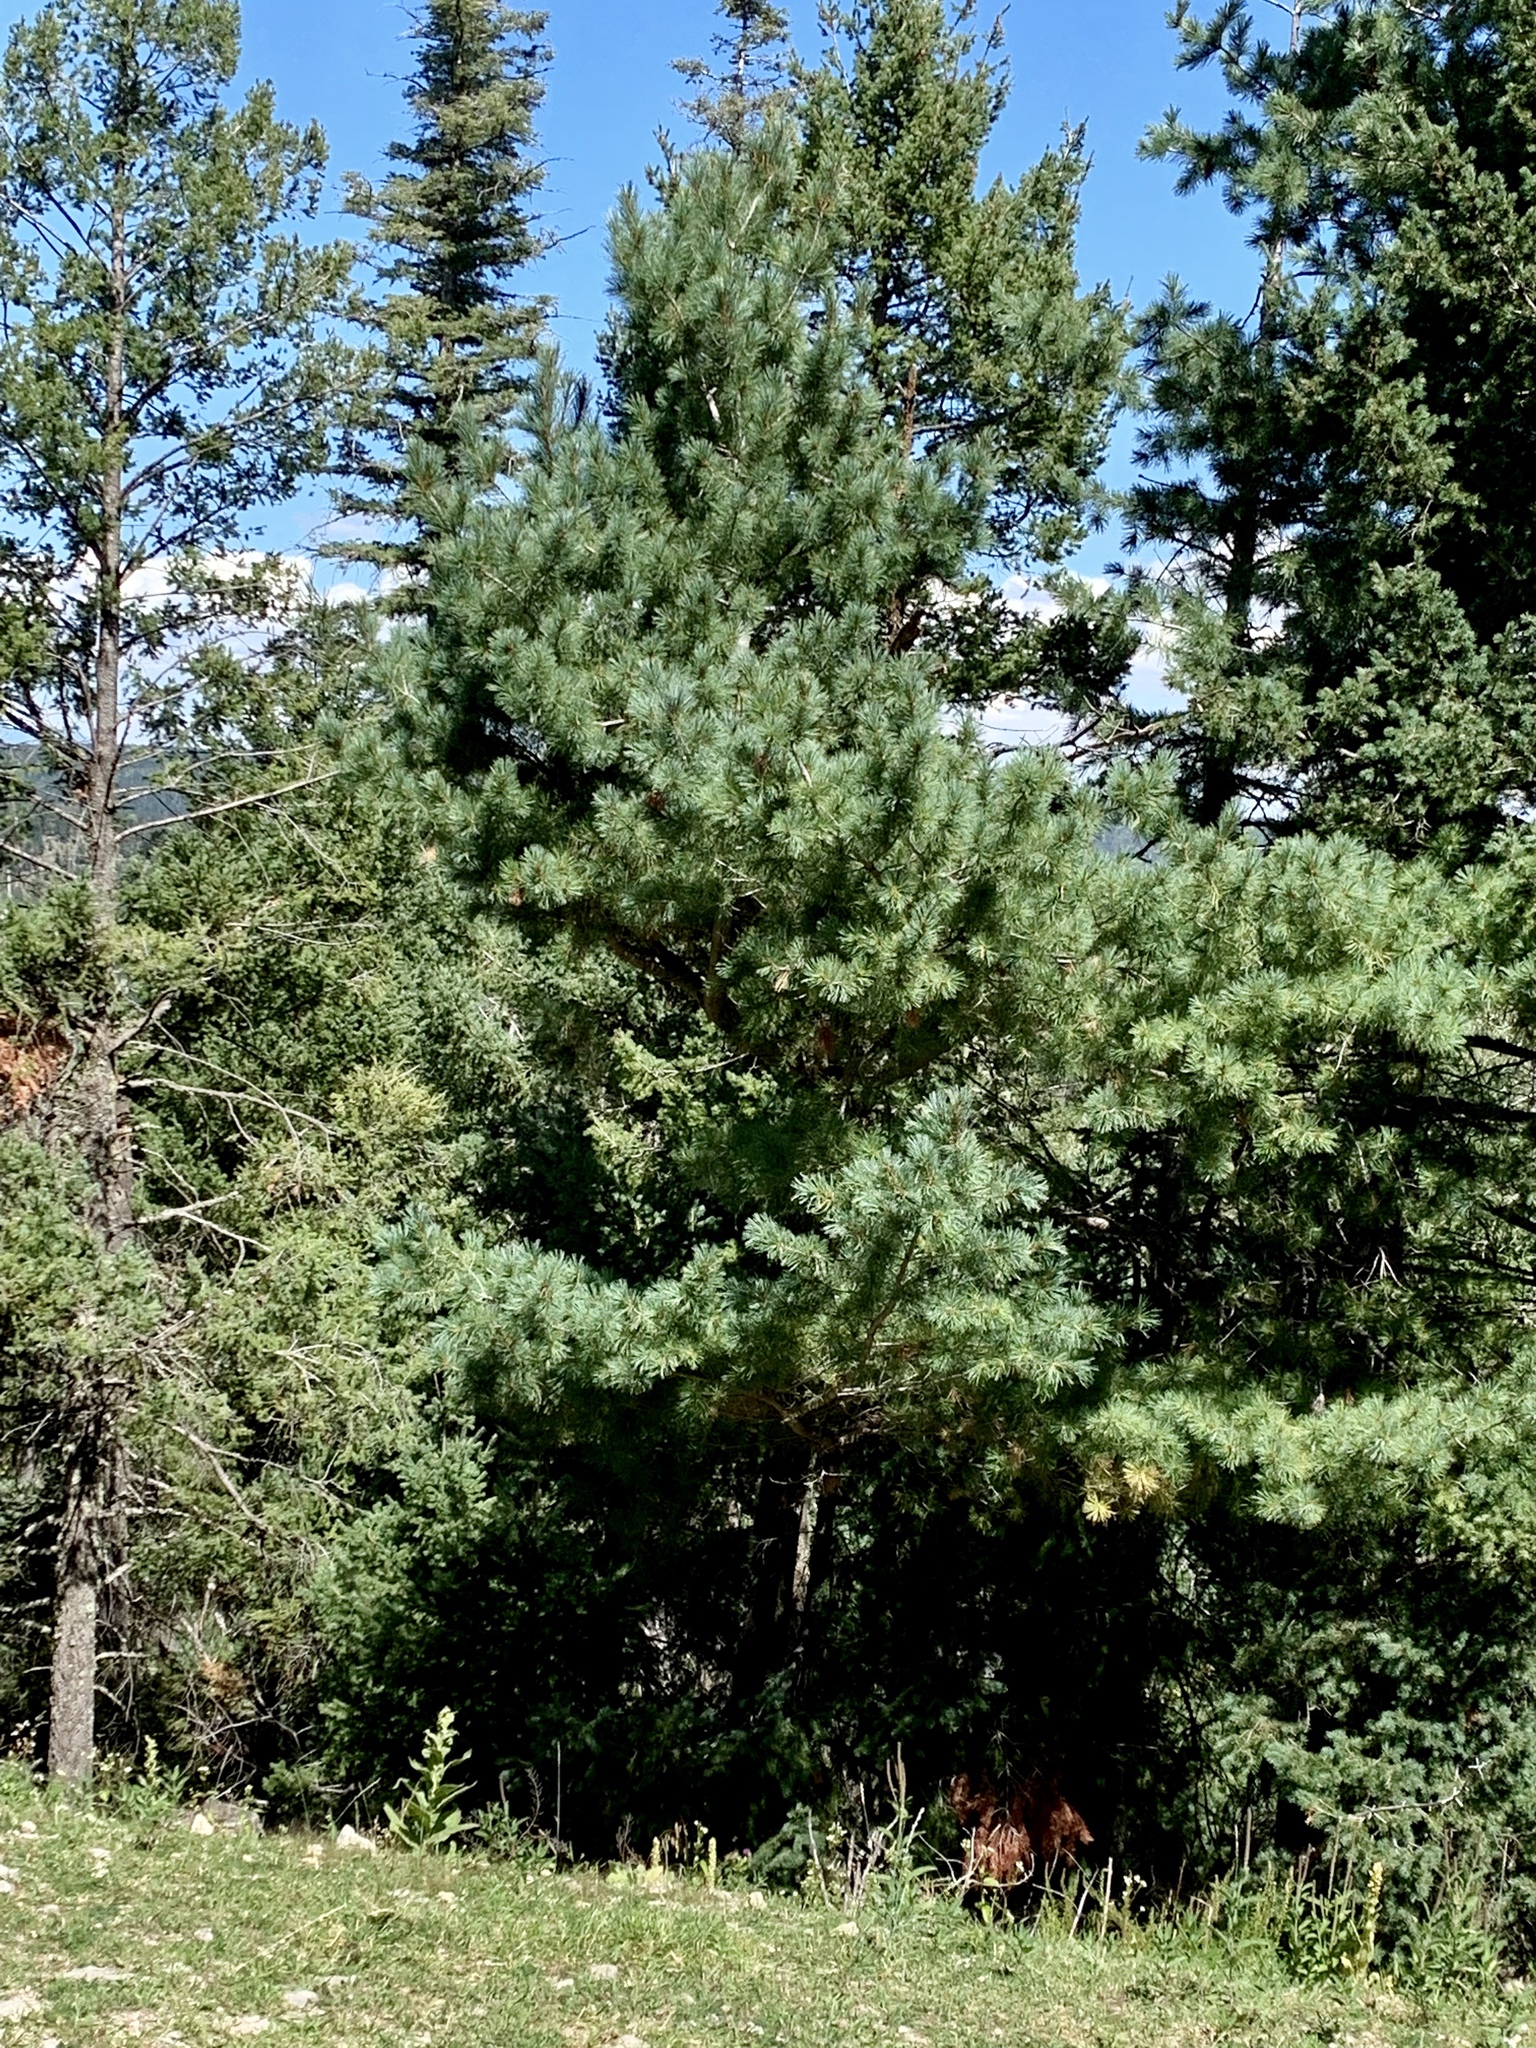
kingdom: Plantae
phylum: Tracheophyta
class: Pinopsida
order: Pinales
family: Pinaceae
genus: Pinus
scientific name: Pinus strobiformis
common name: Southwestern white pine
